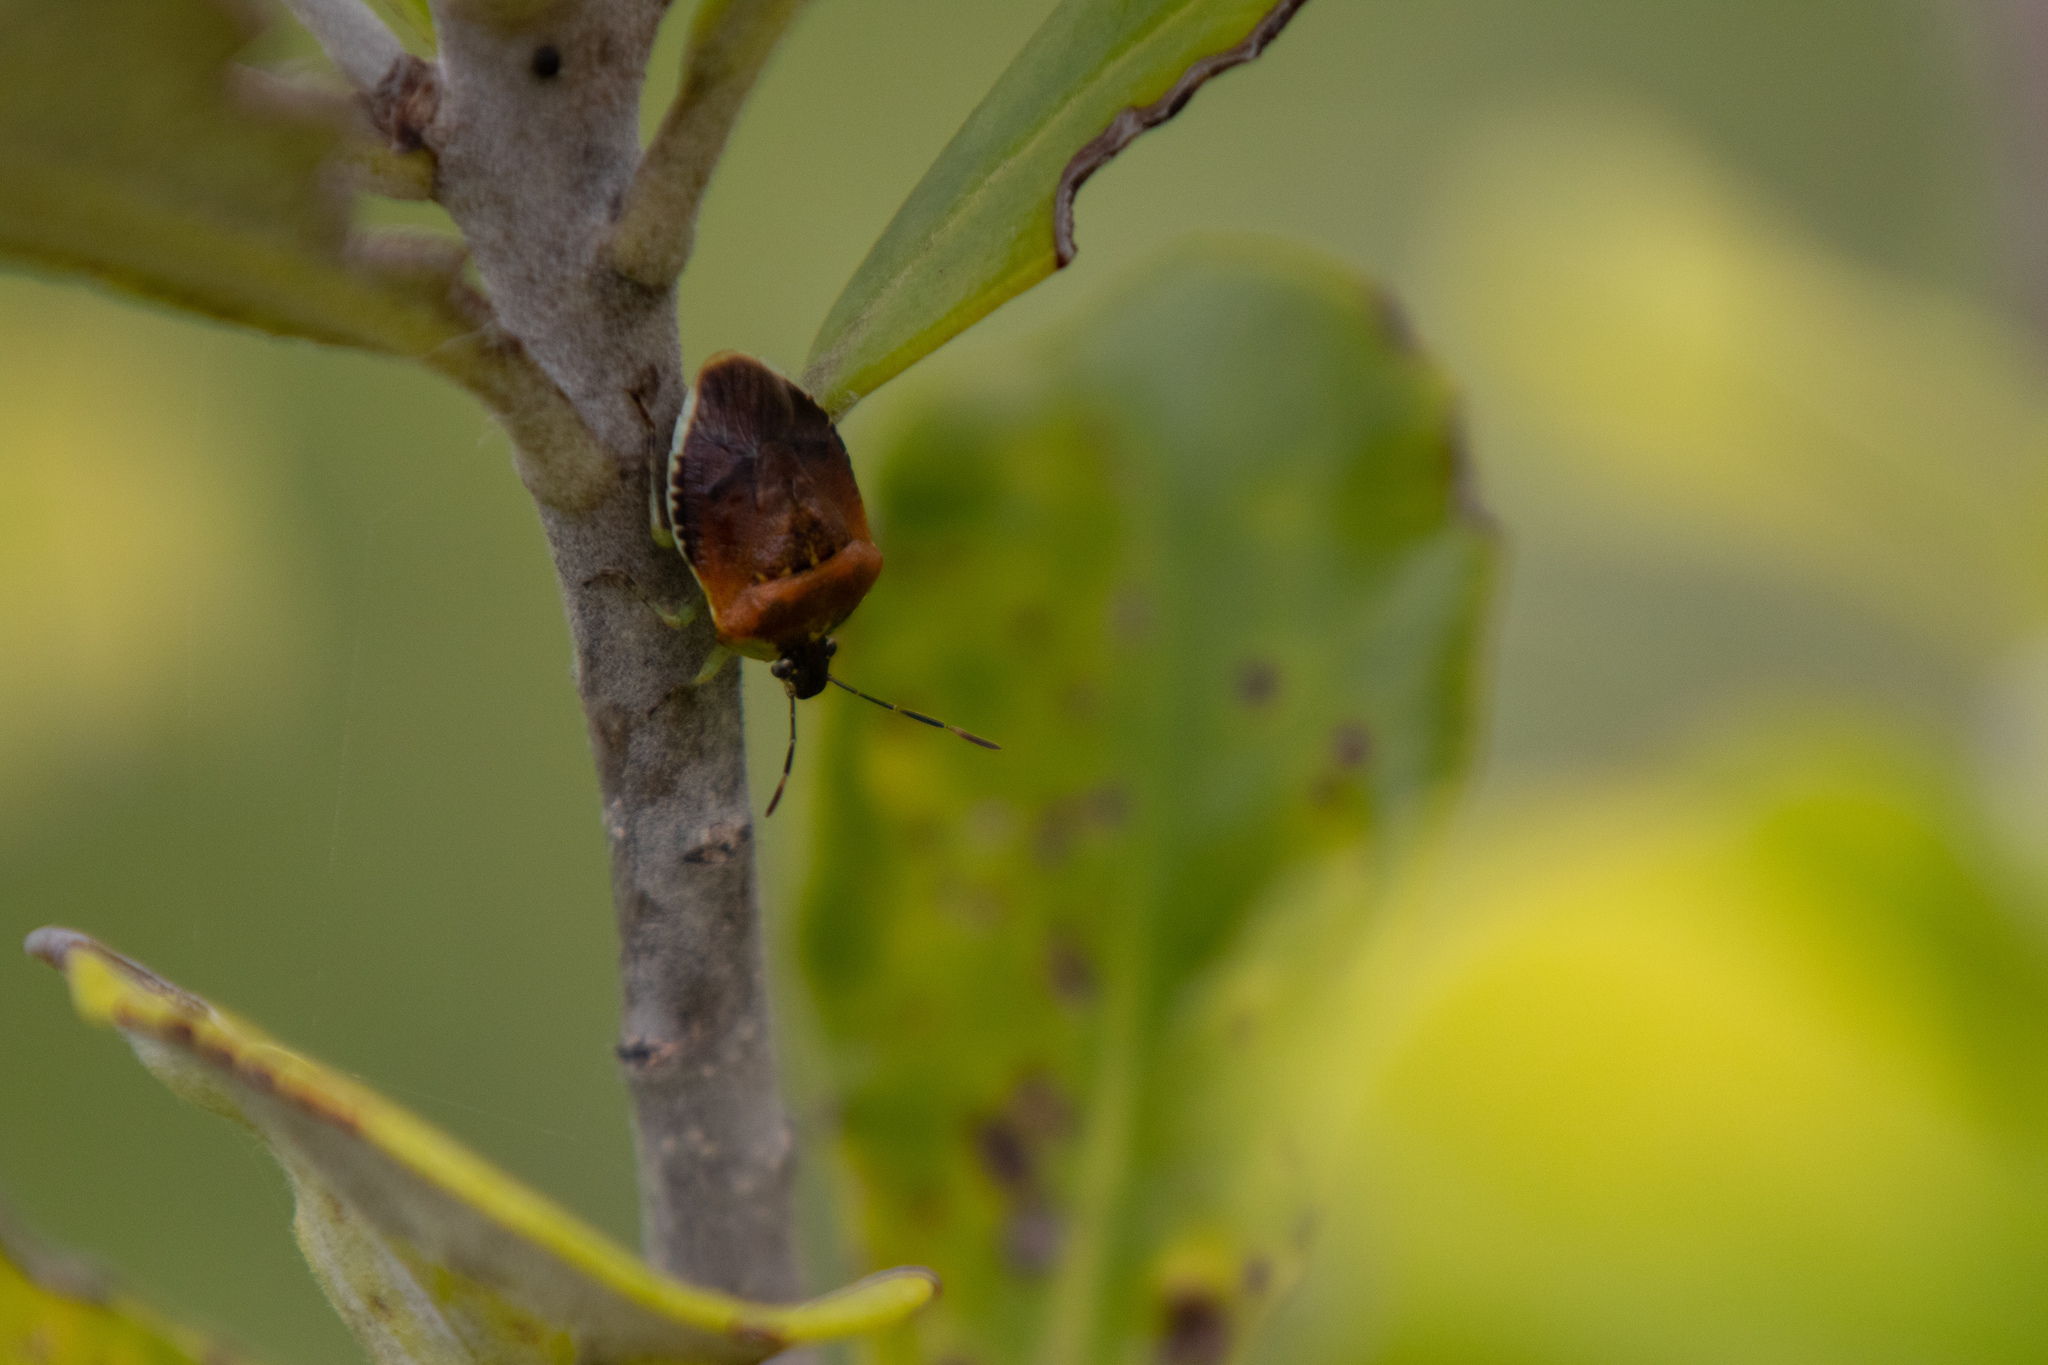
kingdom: Animalia
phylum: Arthropoda
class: Insecta
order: Hemiptera
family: Pentatomidae
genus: Monteithiella
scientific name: Monteithiella
